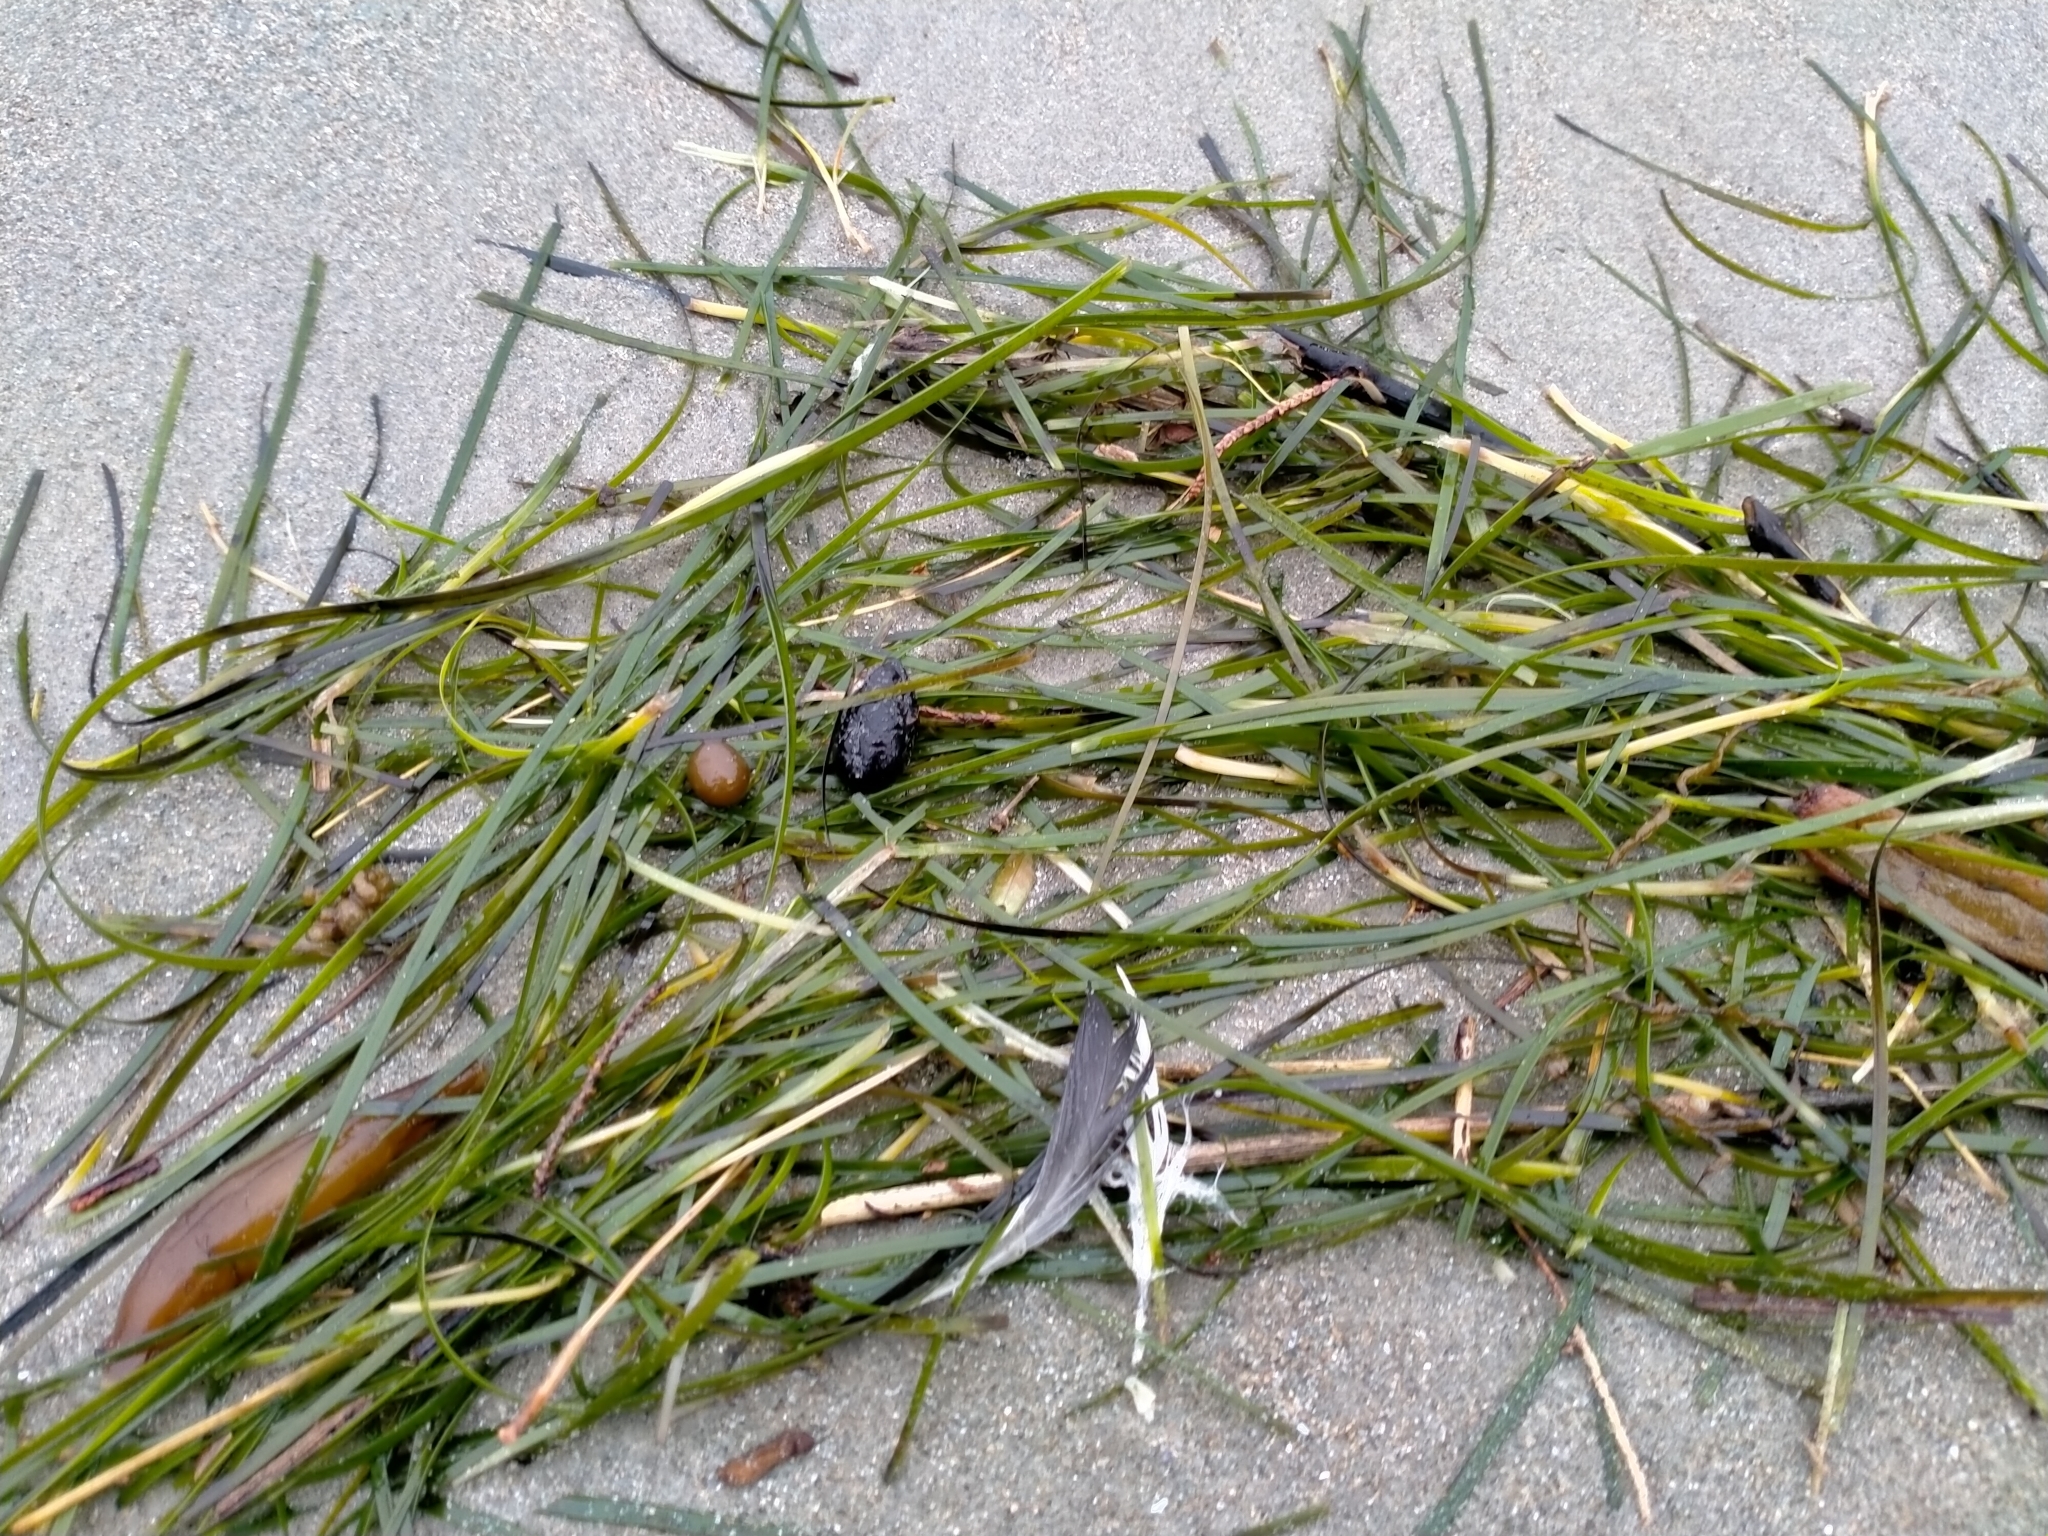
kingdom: Plantae
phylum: Tracheophyta
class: Liliopsida
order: Alismatales
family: Zosteraceae
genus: Zostera
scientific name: Zostera novazelandica
